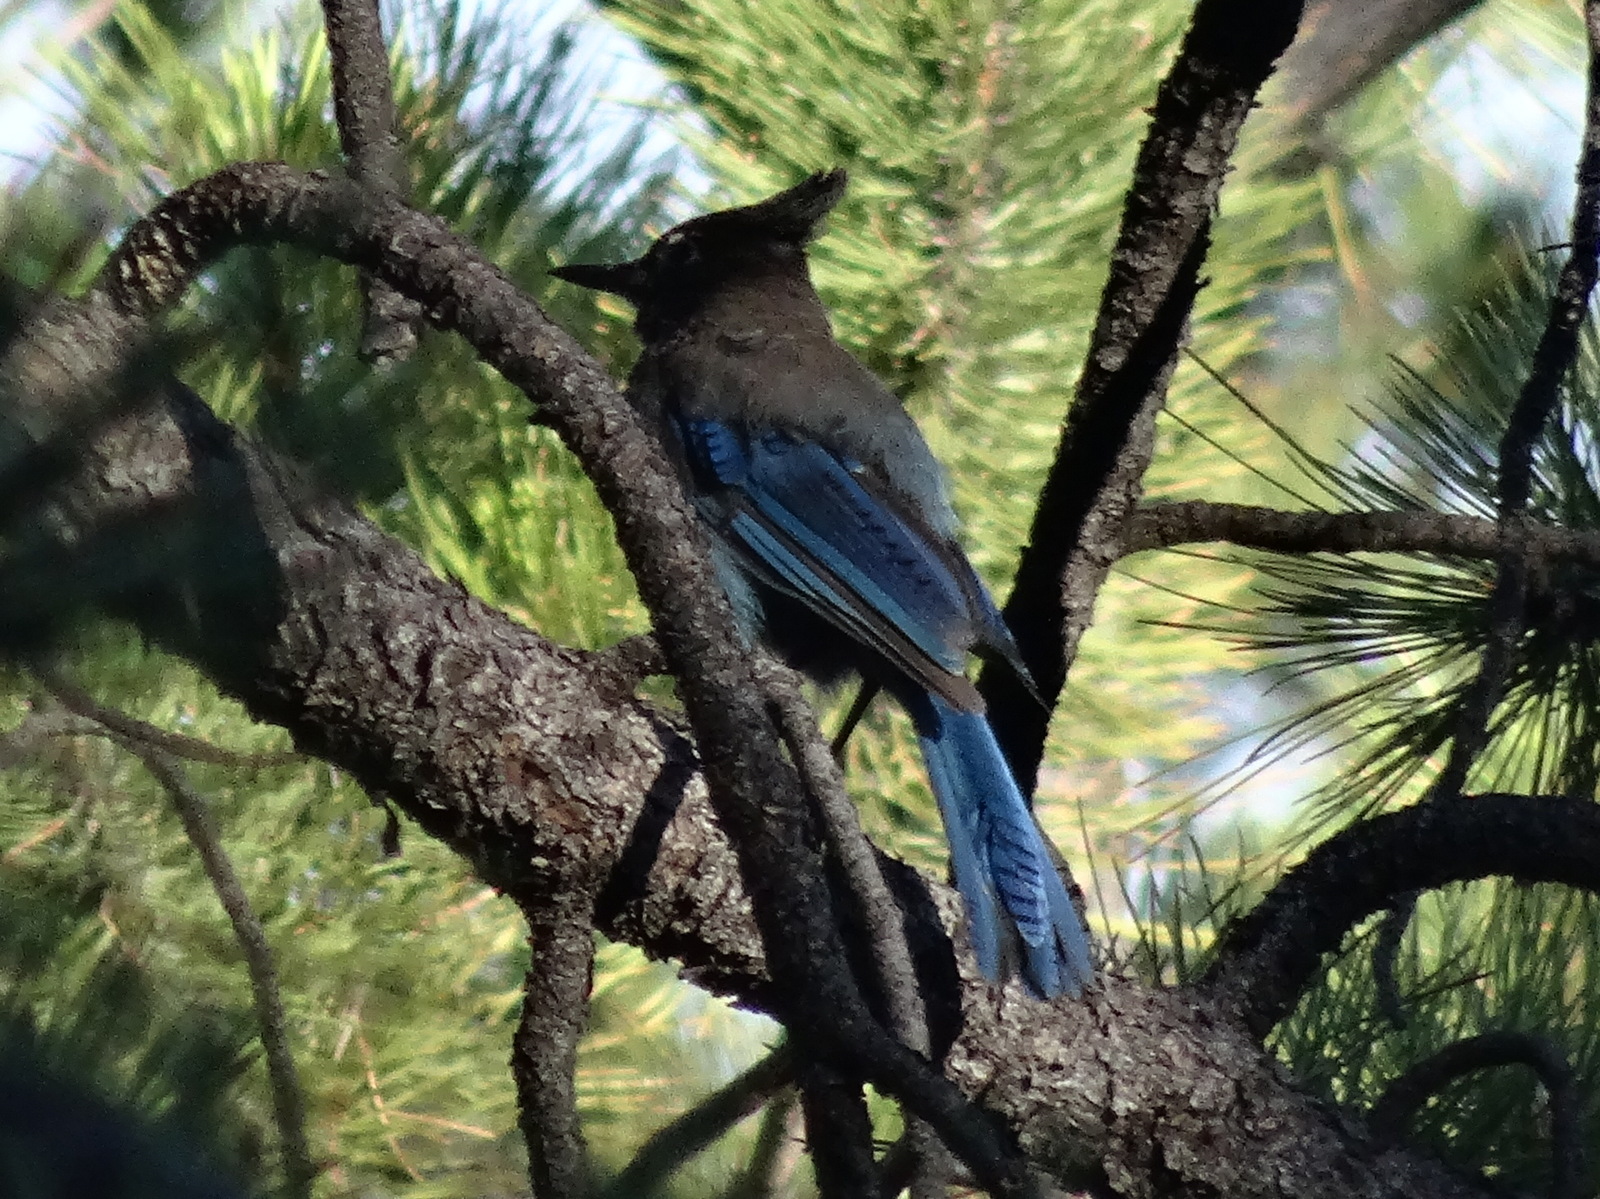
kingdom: Animalia
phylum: Chordata
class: Aves
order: Passeriformes
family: Corvidae
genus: Cyanocitta
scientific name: Cyanocitta stelleri
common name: Steller's jay
